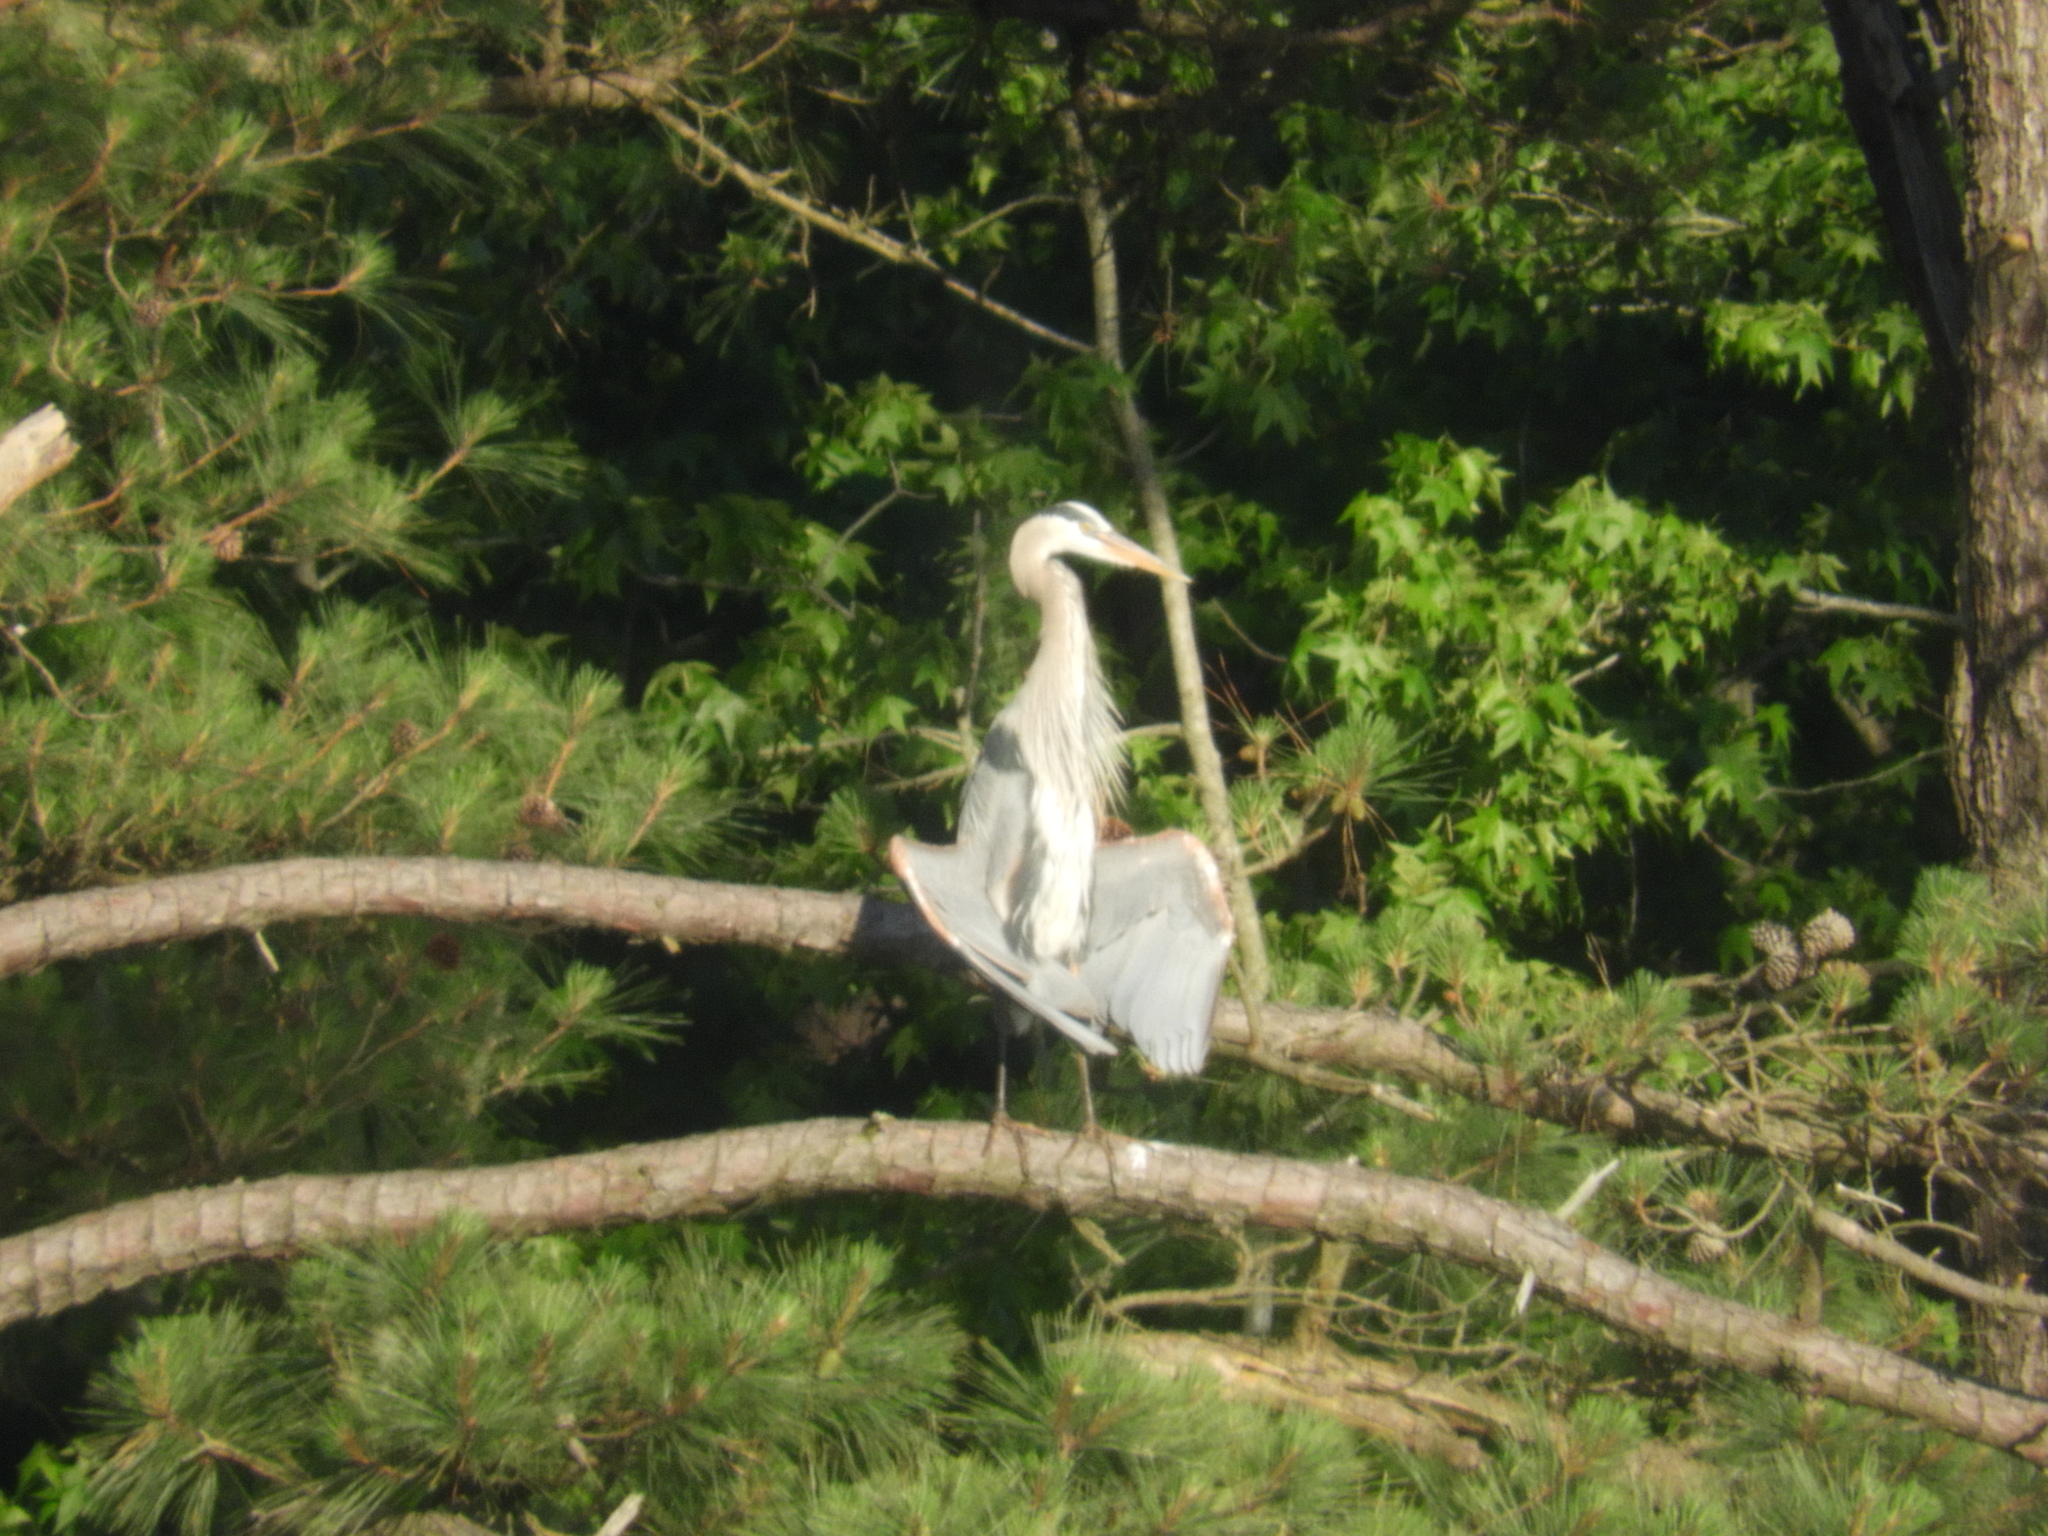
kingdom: Animalia
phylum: Chordata
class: Aves
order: Pelecaniformes
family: Ardeidae
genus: Ardea
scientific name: Ardea herodias
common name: Great blue heron
